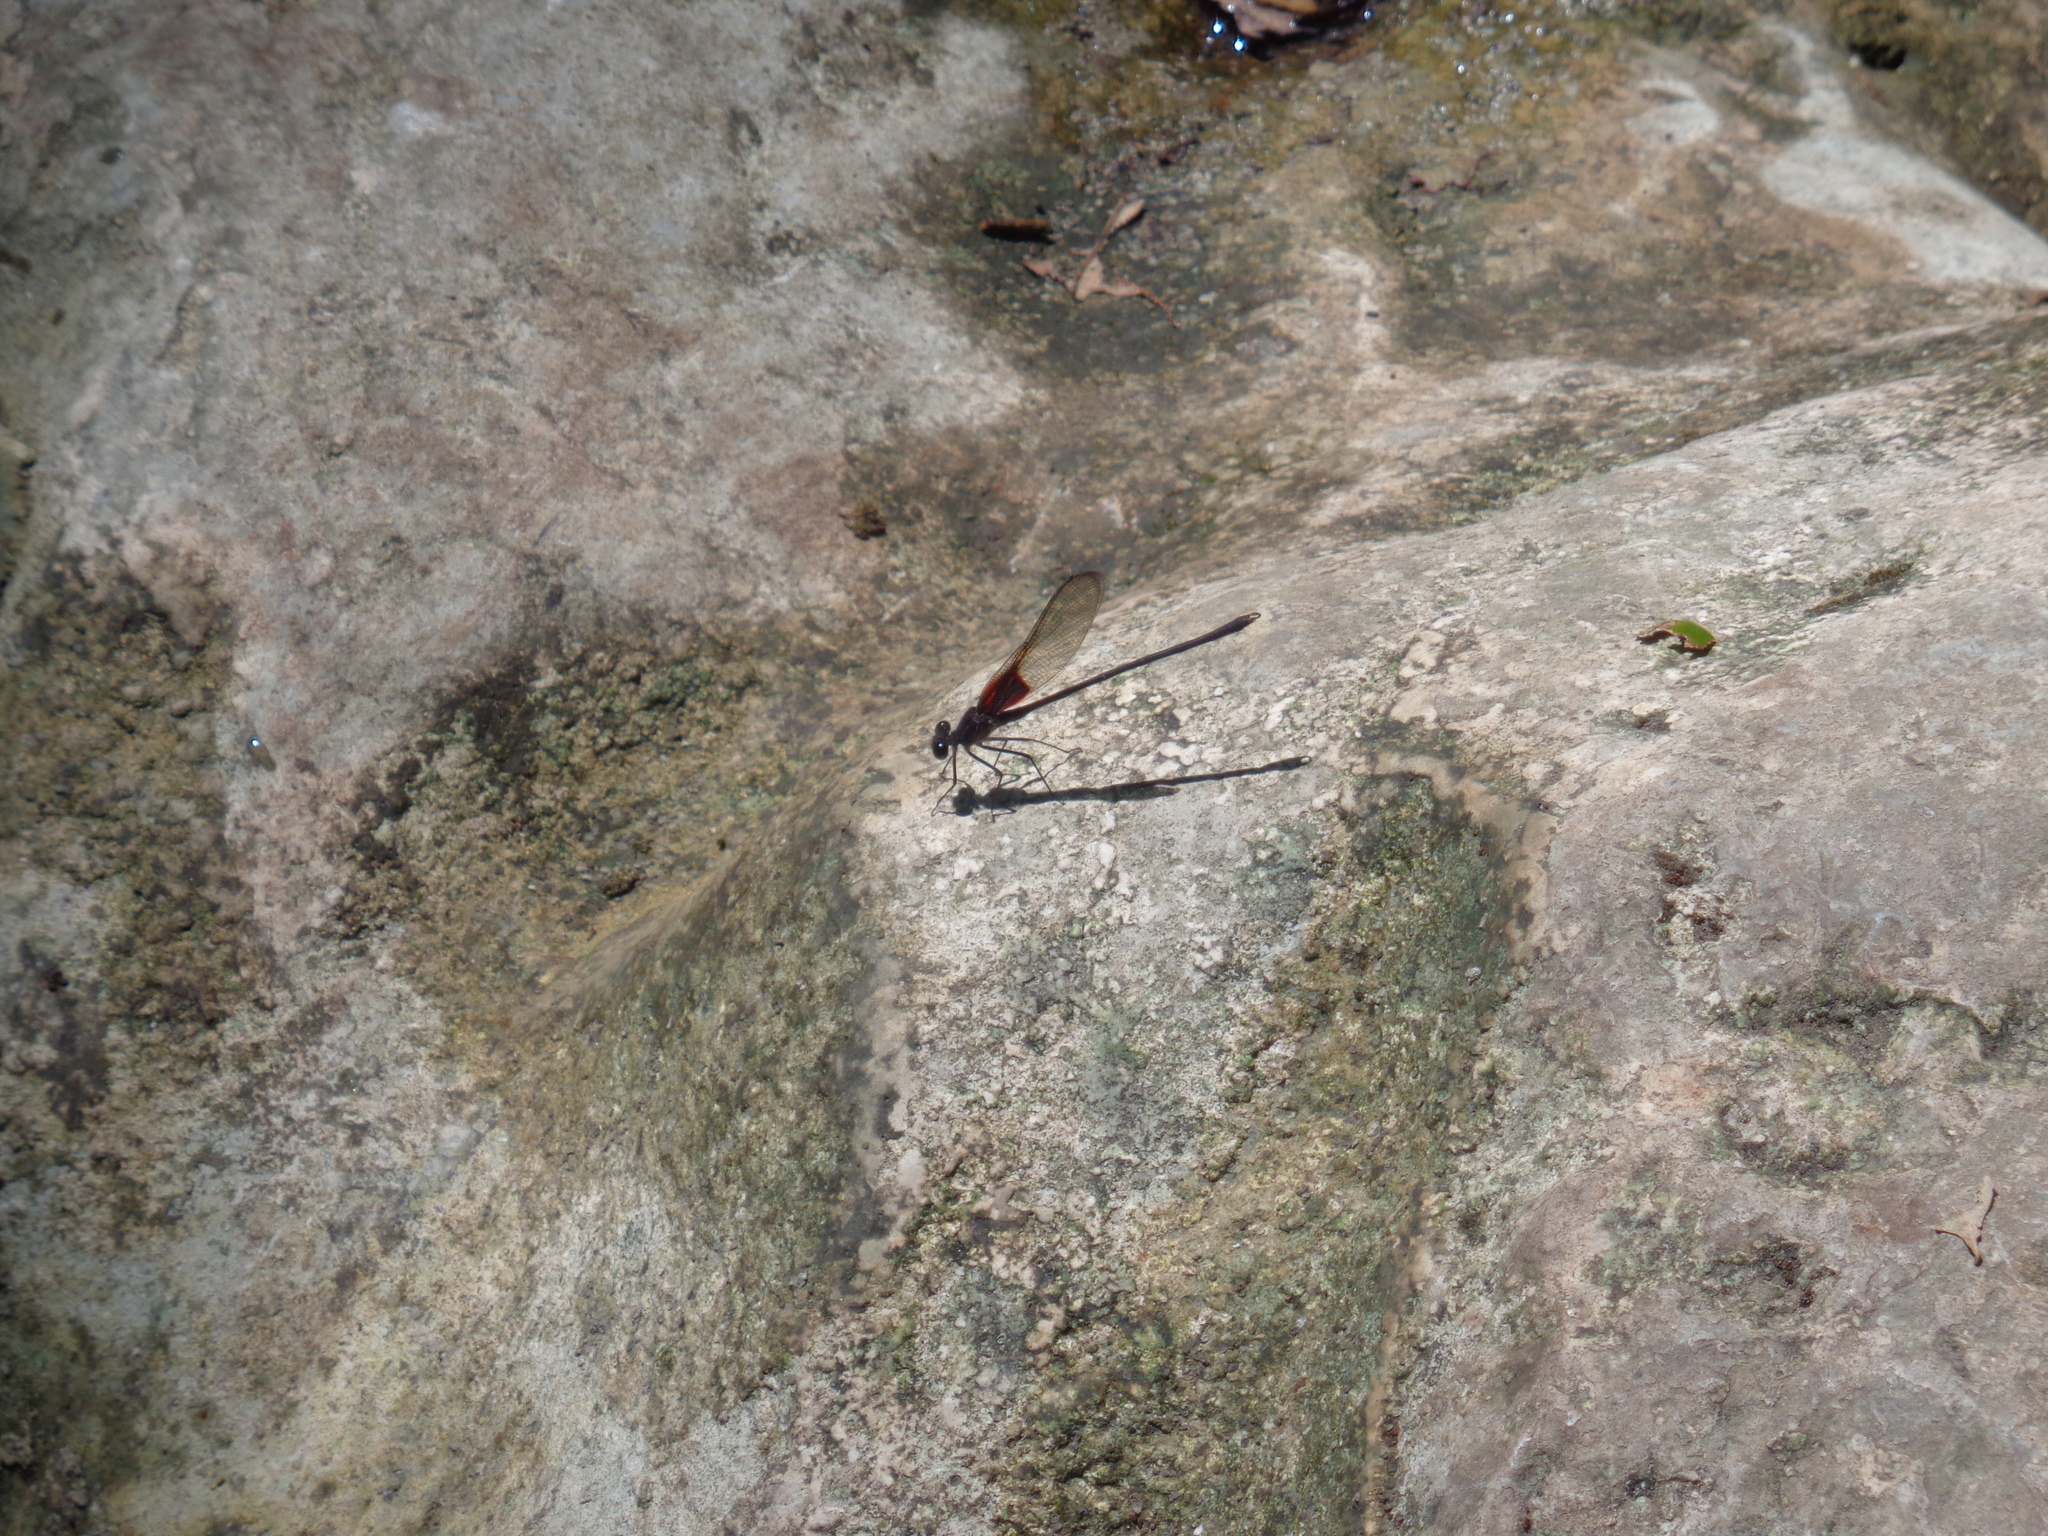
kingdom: Animalia
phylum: Arthropoda
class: Insecta
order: Odonata
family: Calopterygidae
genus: Hetaerina
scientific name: Hetaerina americana
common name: American rubyspot
